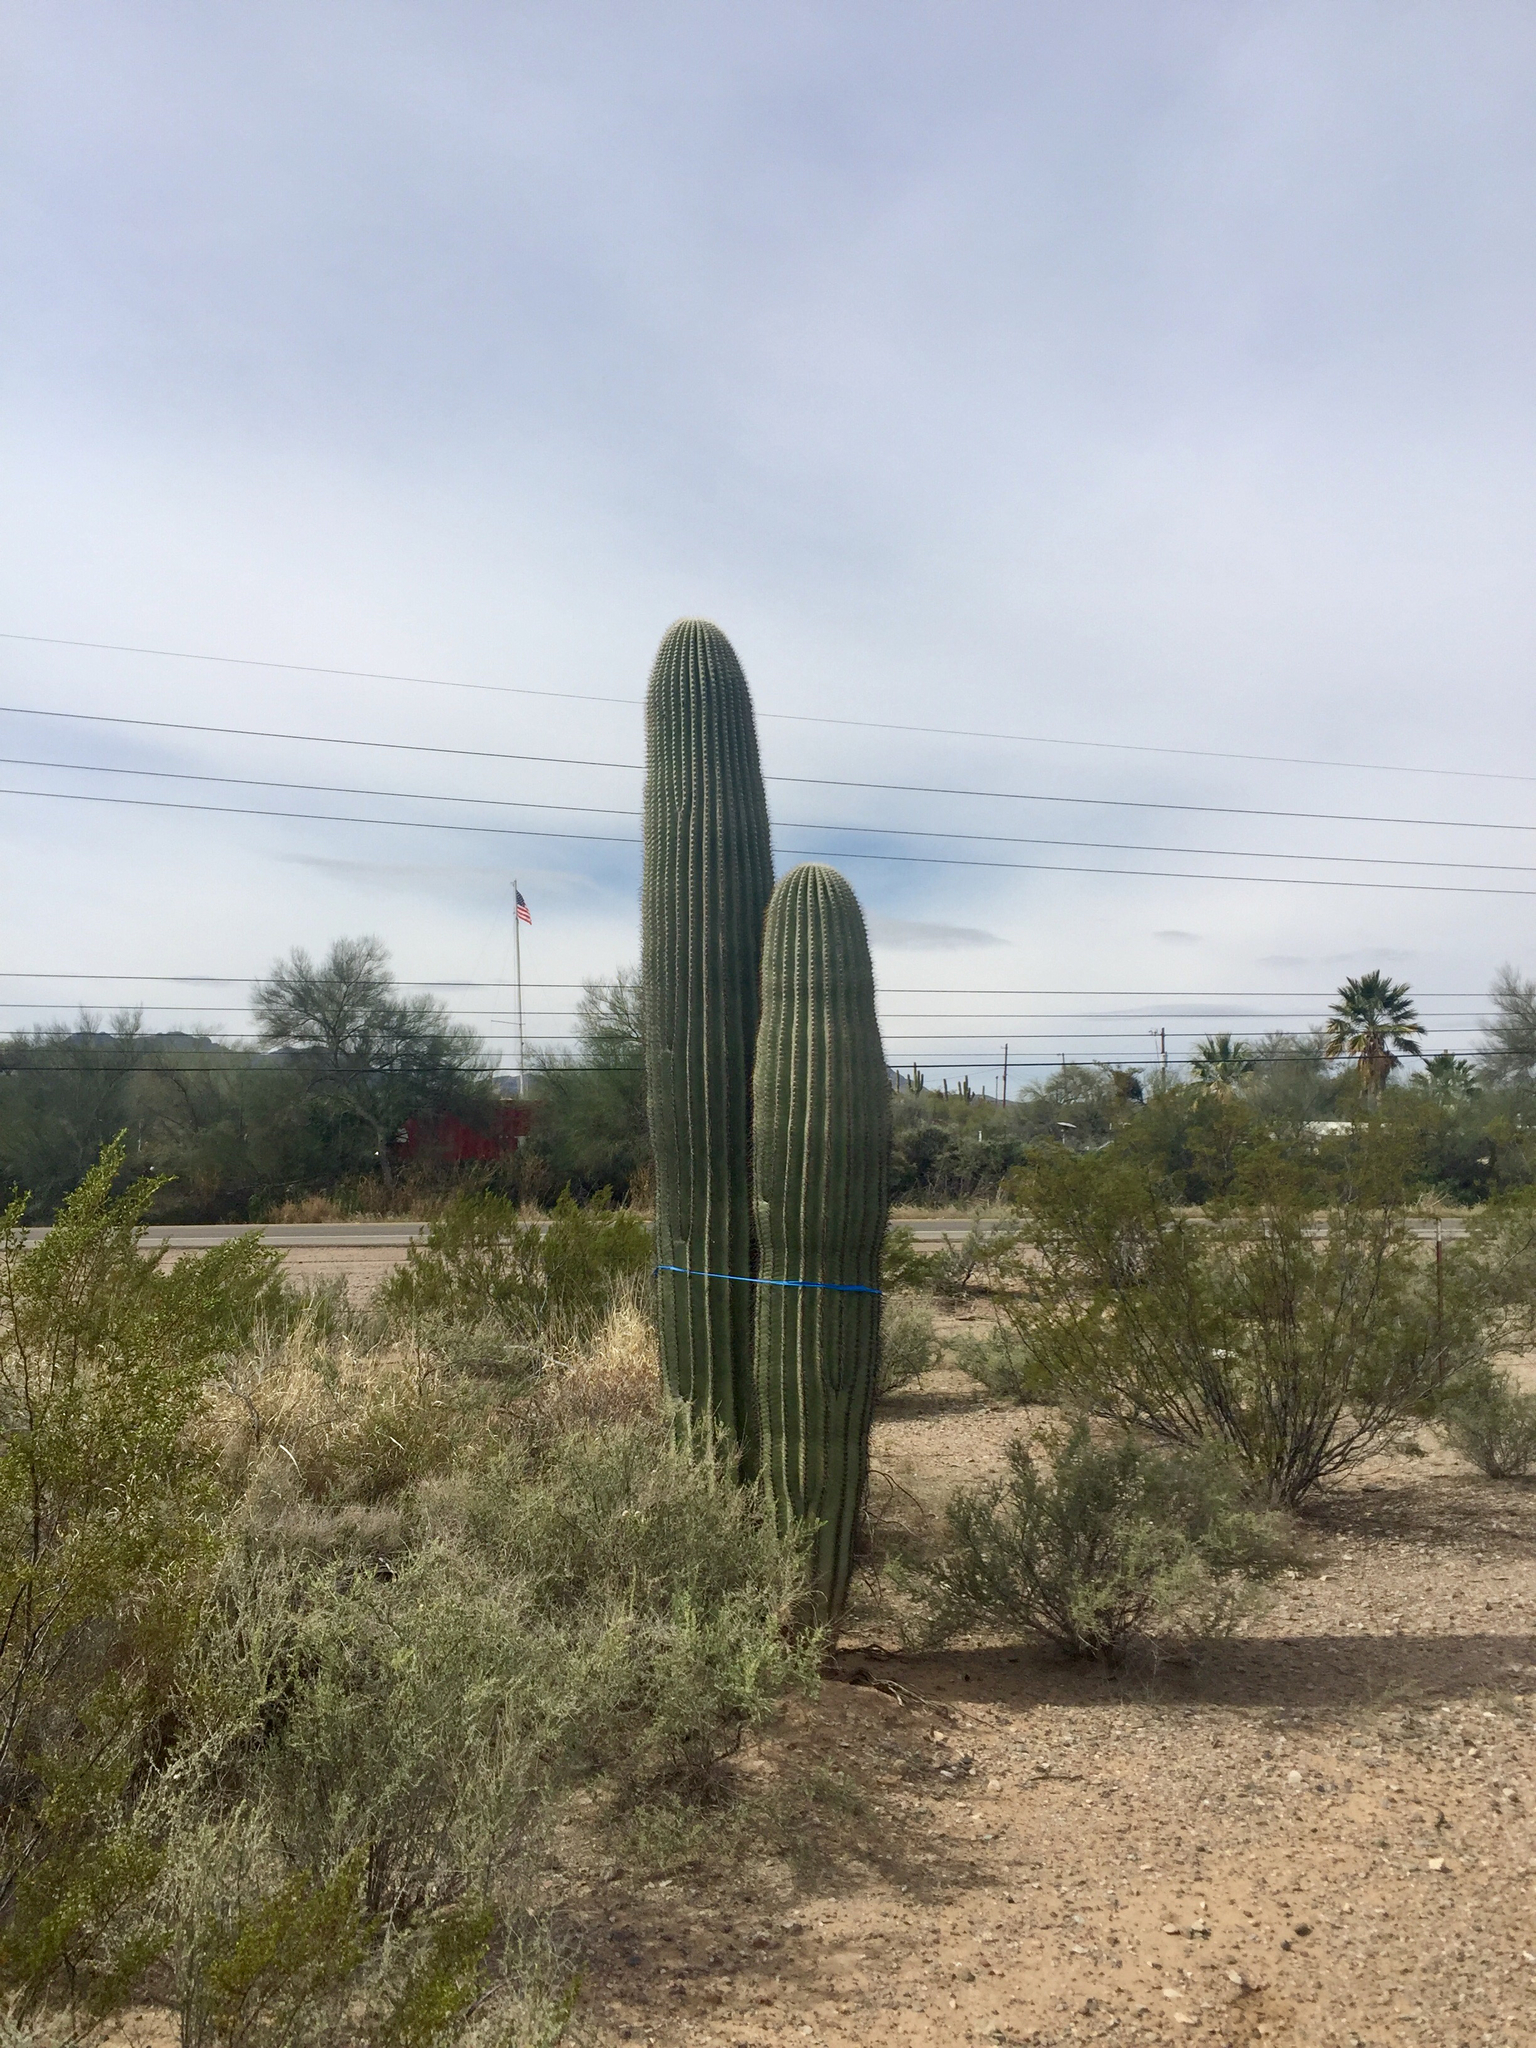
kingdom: Plantae
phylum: Tracheophyta
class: Magnoliopsida
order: Caryophyllales
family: Cactaceae
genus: Carnegiea
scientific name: Carnegiea gigantea
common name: Saguaro
